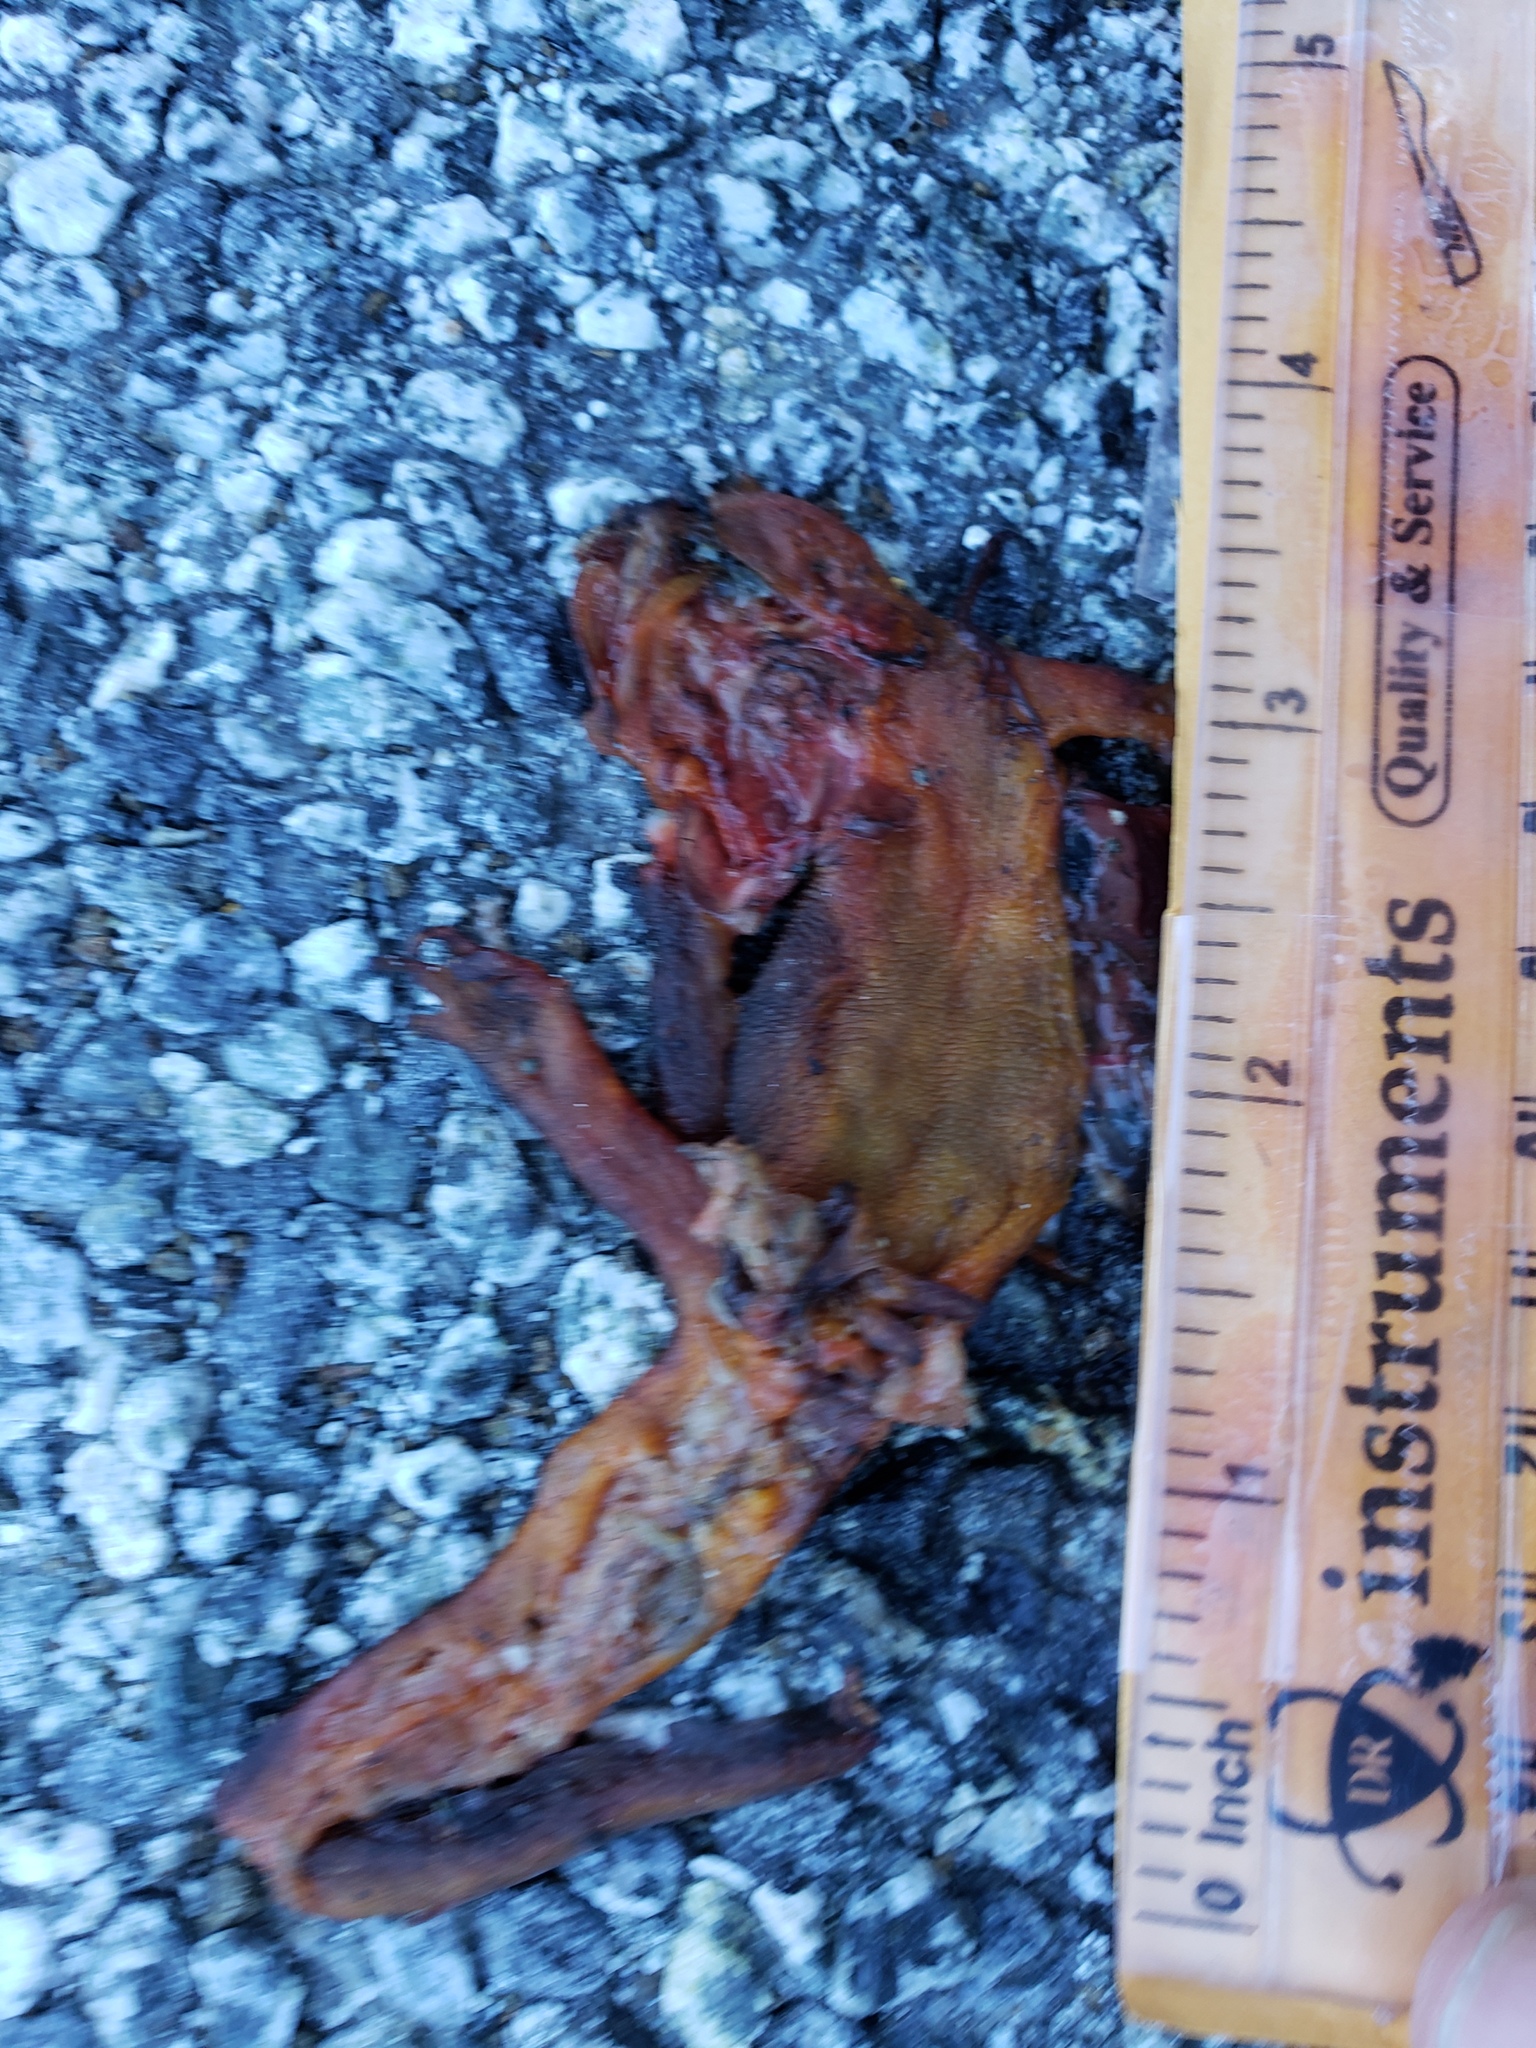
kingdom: Animalia
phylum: Chordata
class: Amphibia
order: Caudata
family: Salamandridae
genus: Taricha
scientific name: Taricha
